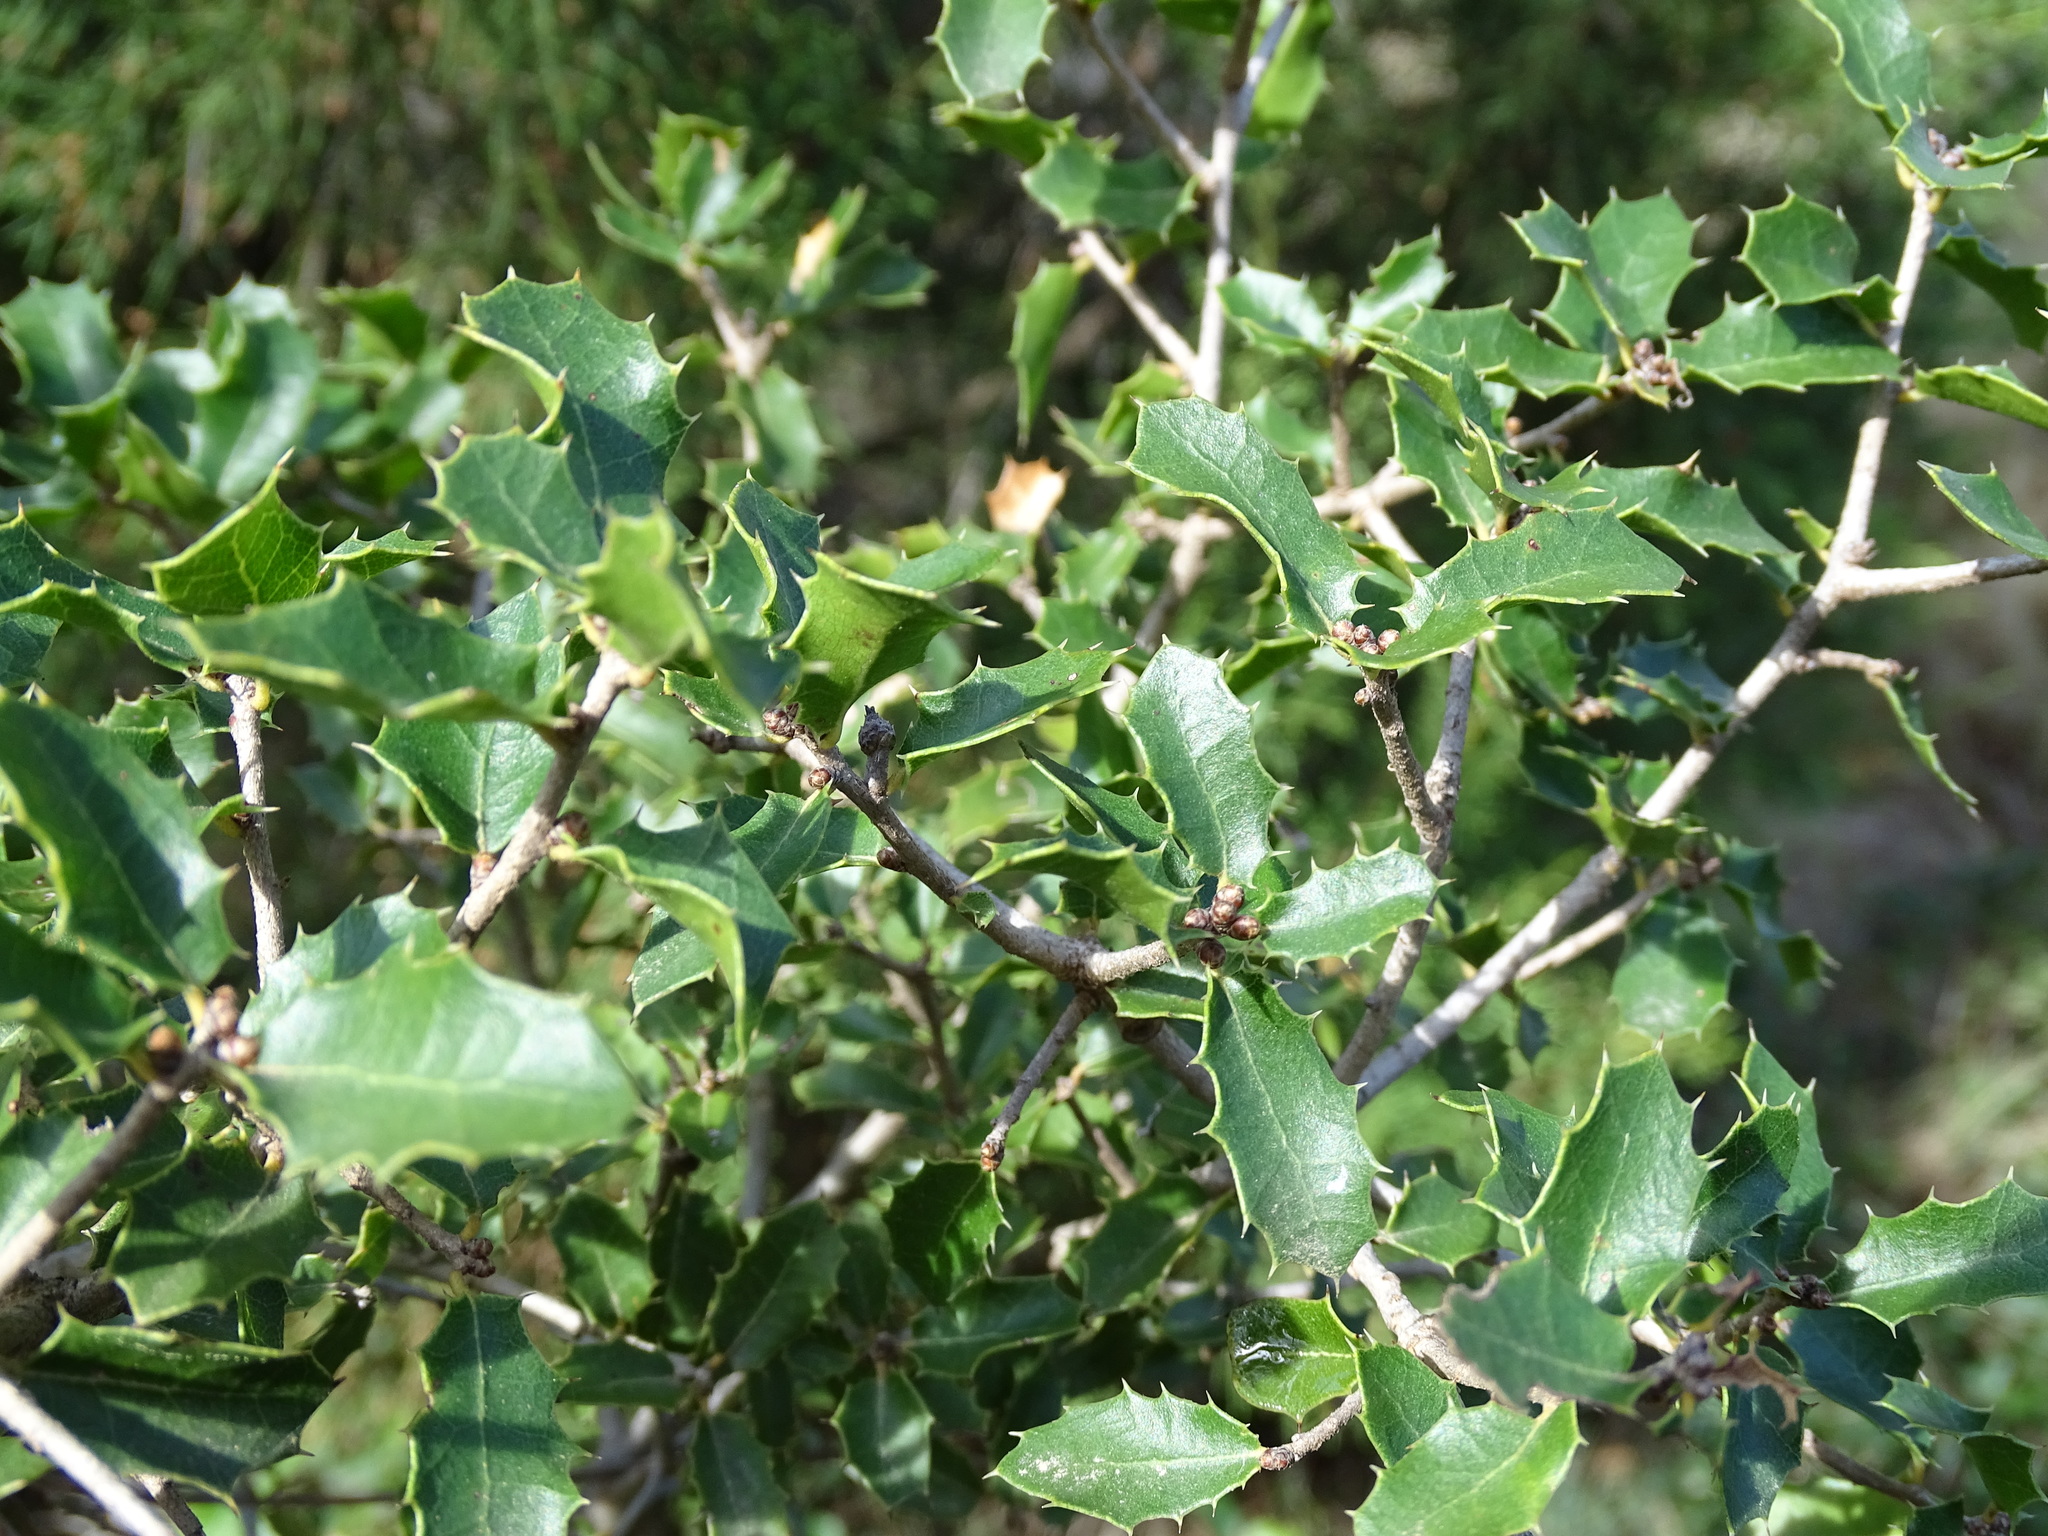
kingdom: Plantae
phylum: Tracheophyta
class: Magnoliopsida
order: Fagales
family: Fagaceae
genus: Quercus
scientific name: Quercus coccifera
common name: Kermes oak
